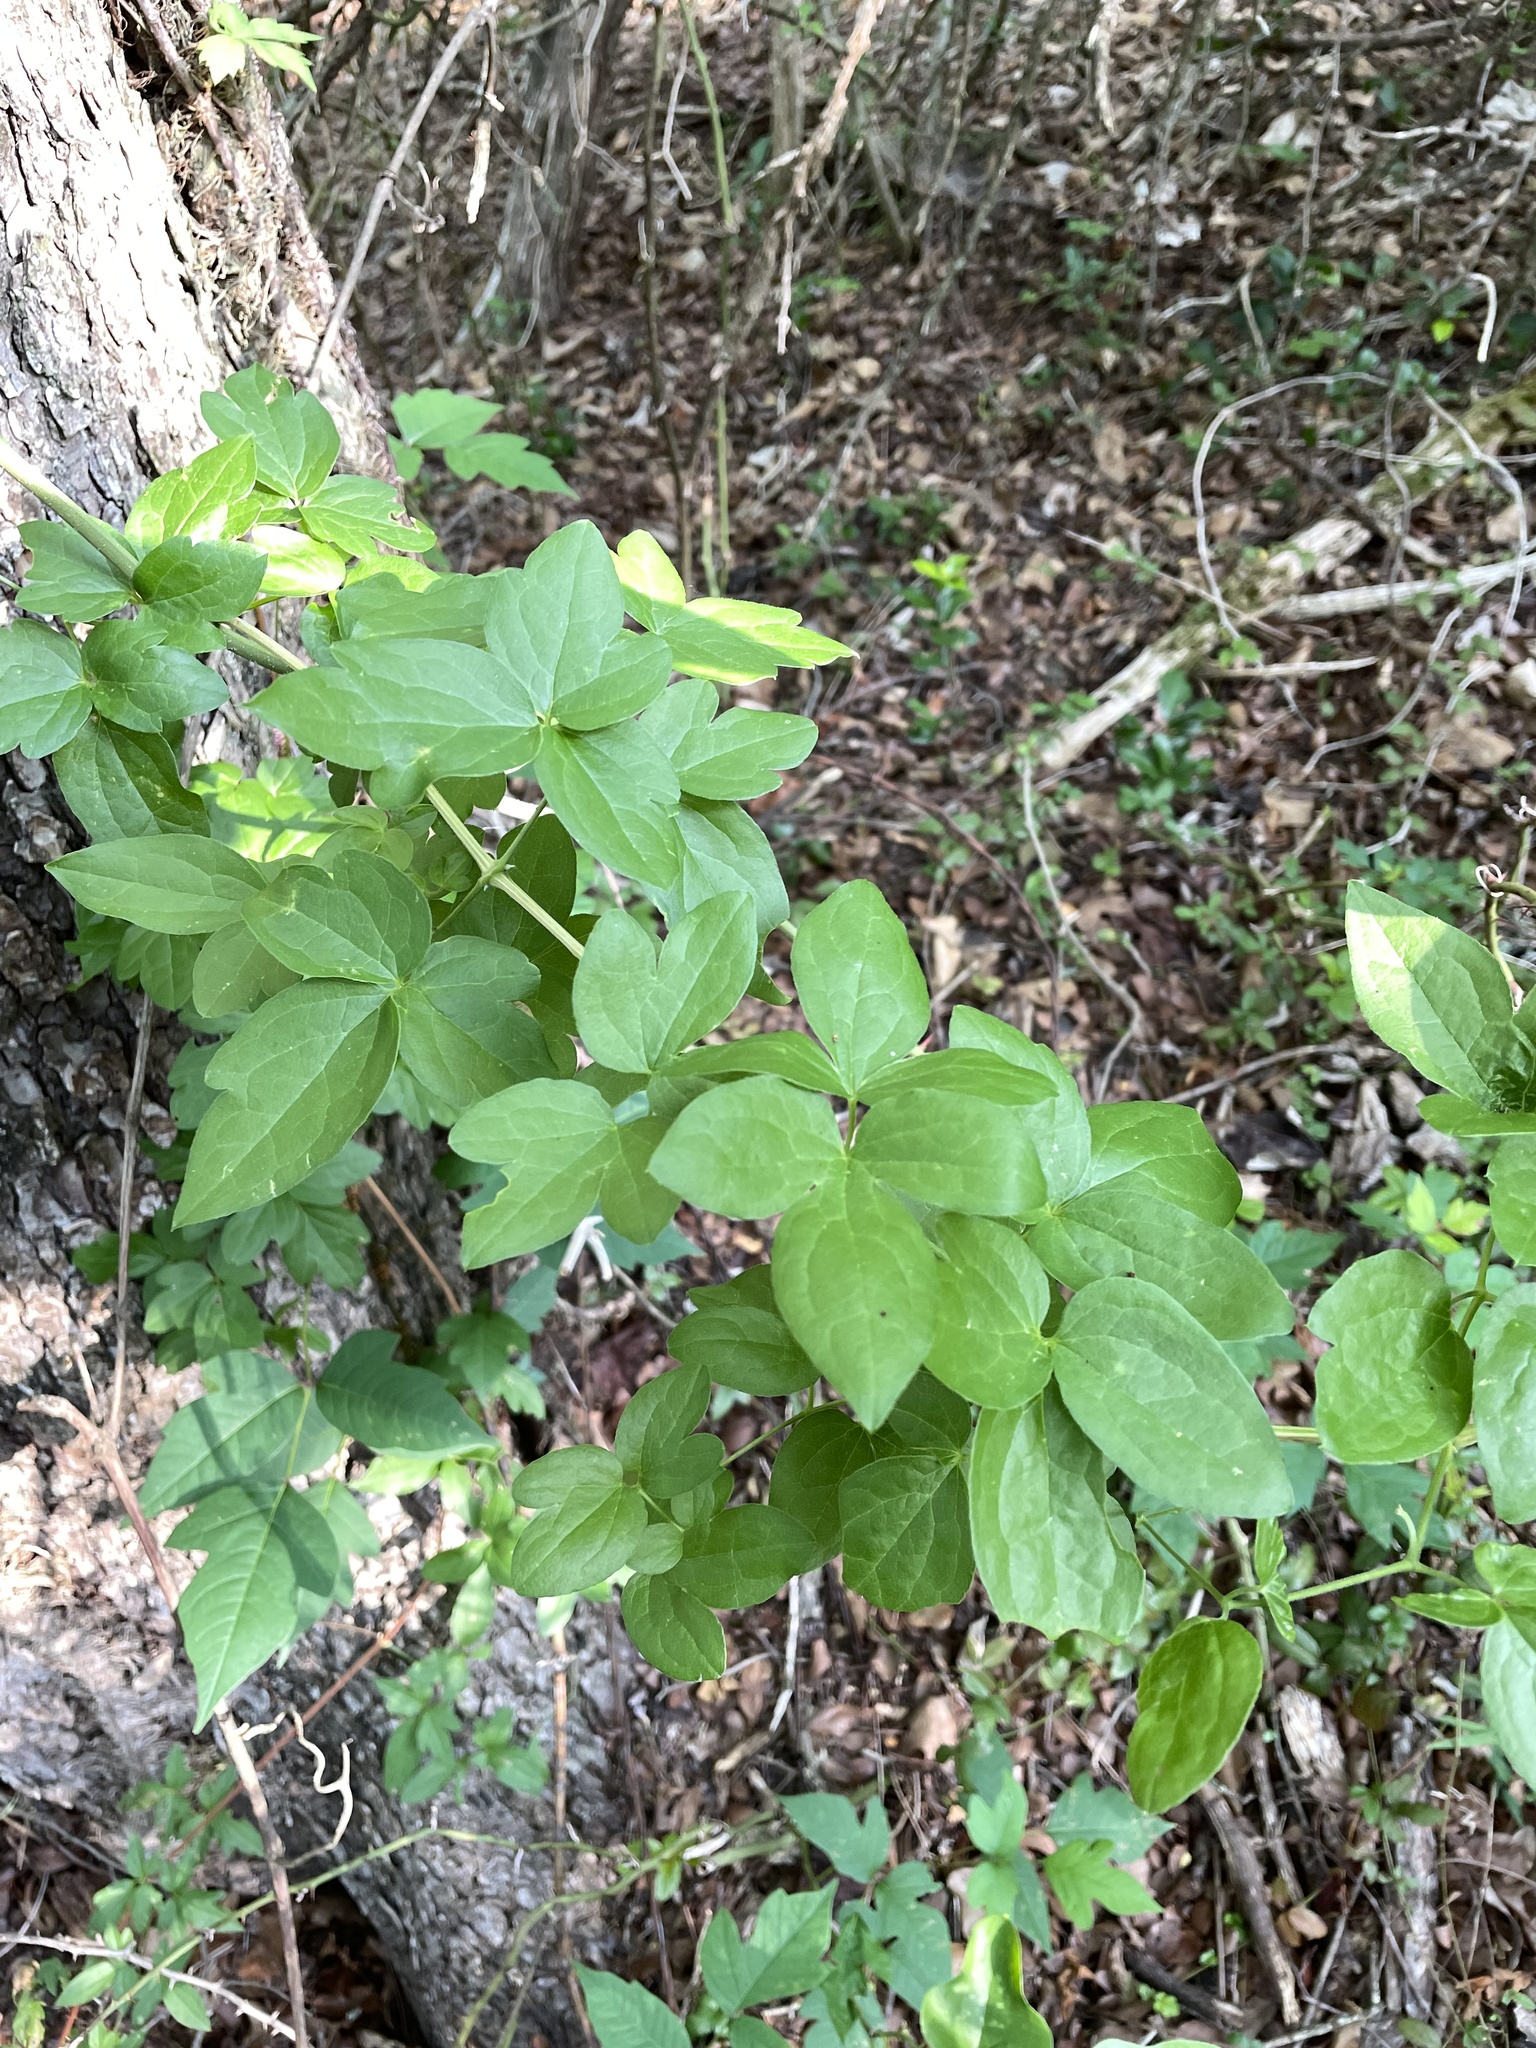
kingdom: Plantae
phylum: Tracheophyta
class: Magnoliopsida
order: Ranunculales
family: Ranunculaceae
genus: Clematis
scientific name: Clematis pitcheri
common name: Bellflower clematis
